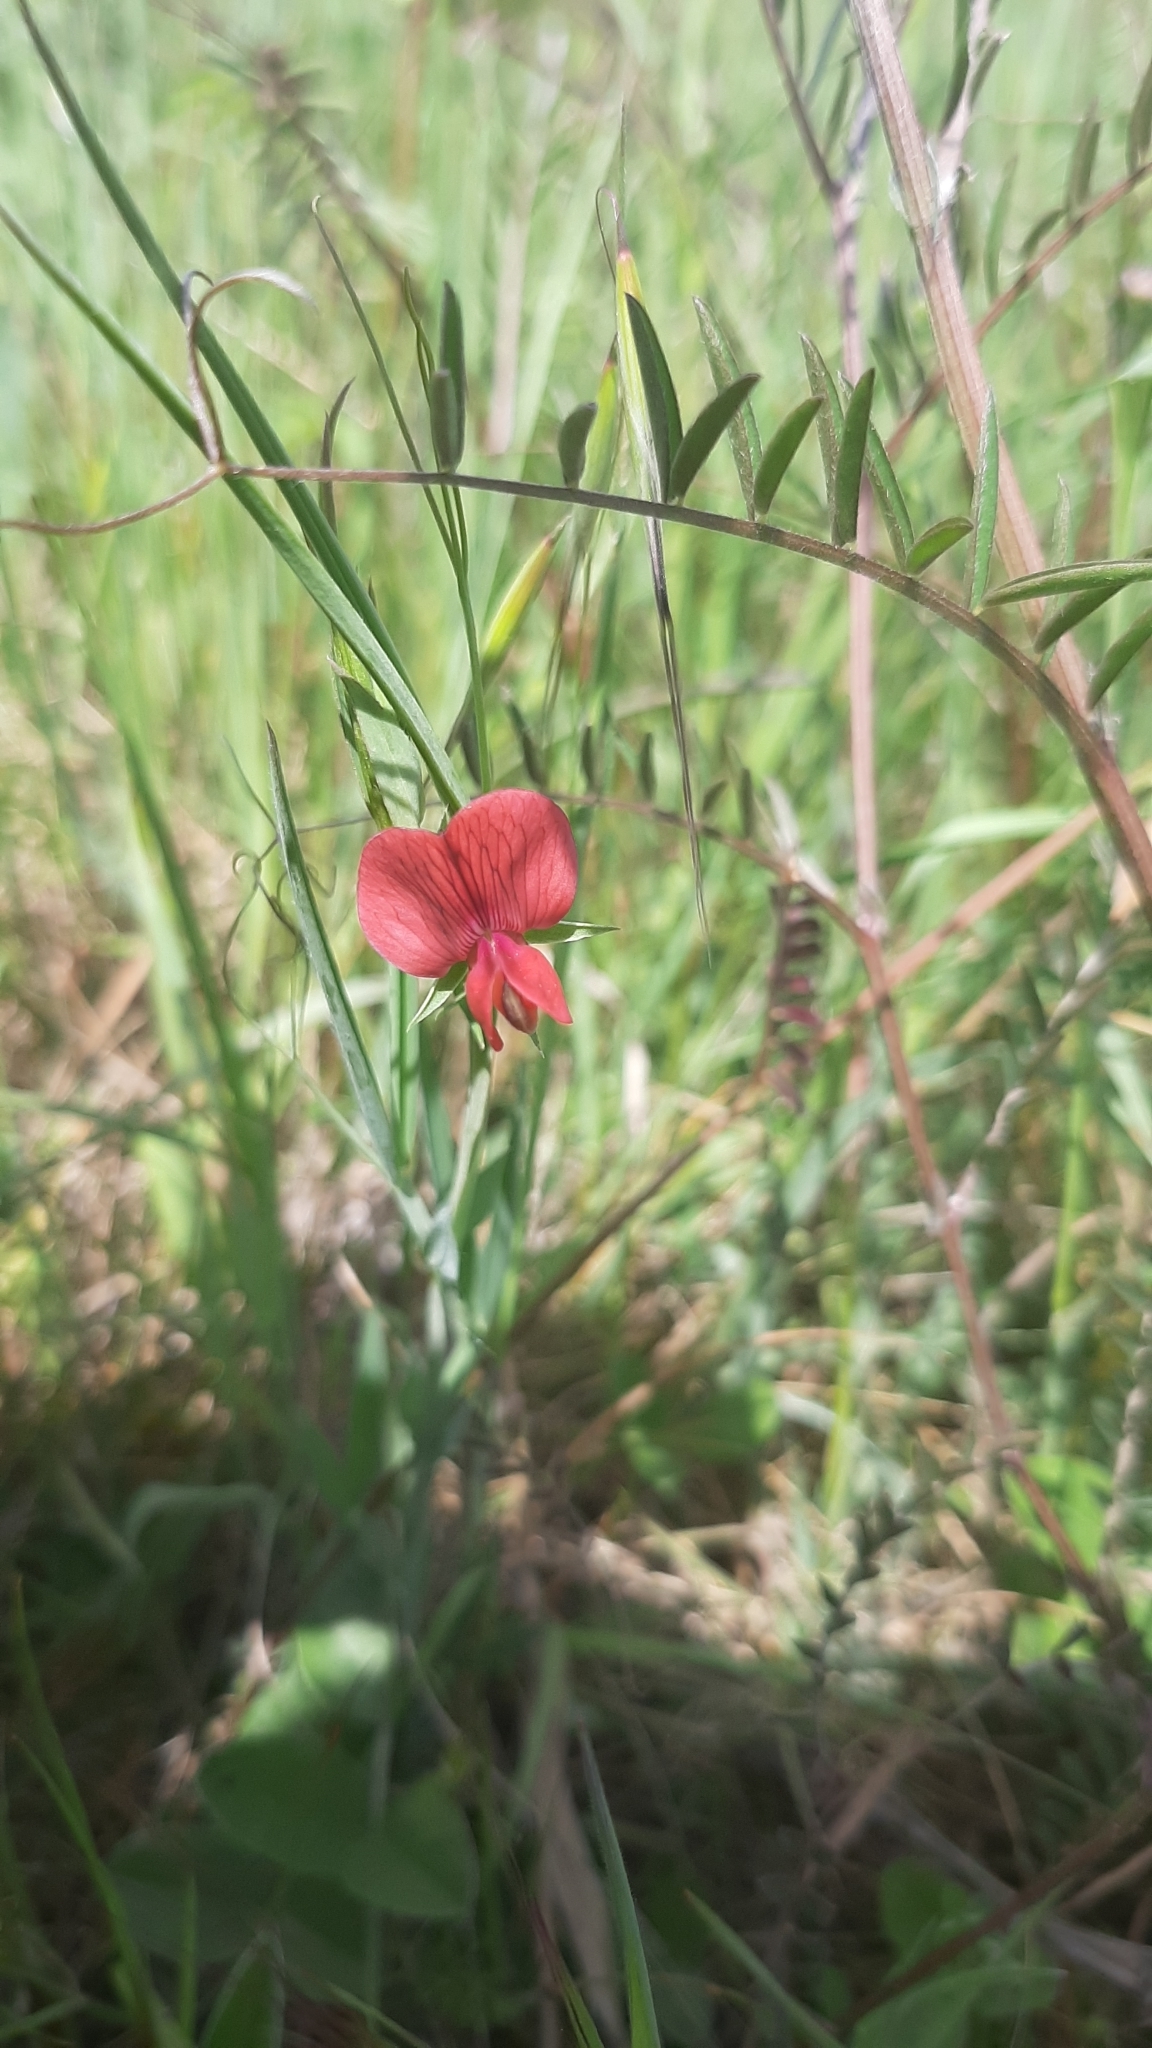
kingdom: Plantae
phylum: Tracheophyta
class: Magnoliopsida
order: Fabales
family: Fabaceae
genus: Lathyrus
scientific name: Lathyrus sphaericus
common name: Grass pea
